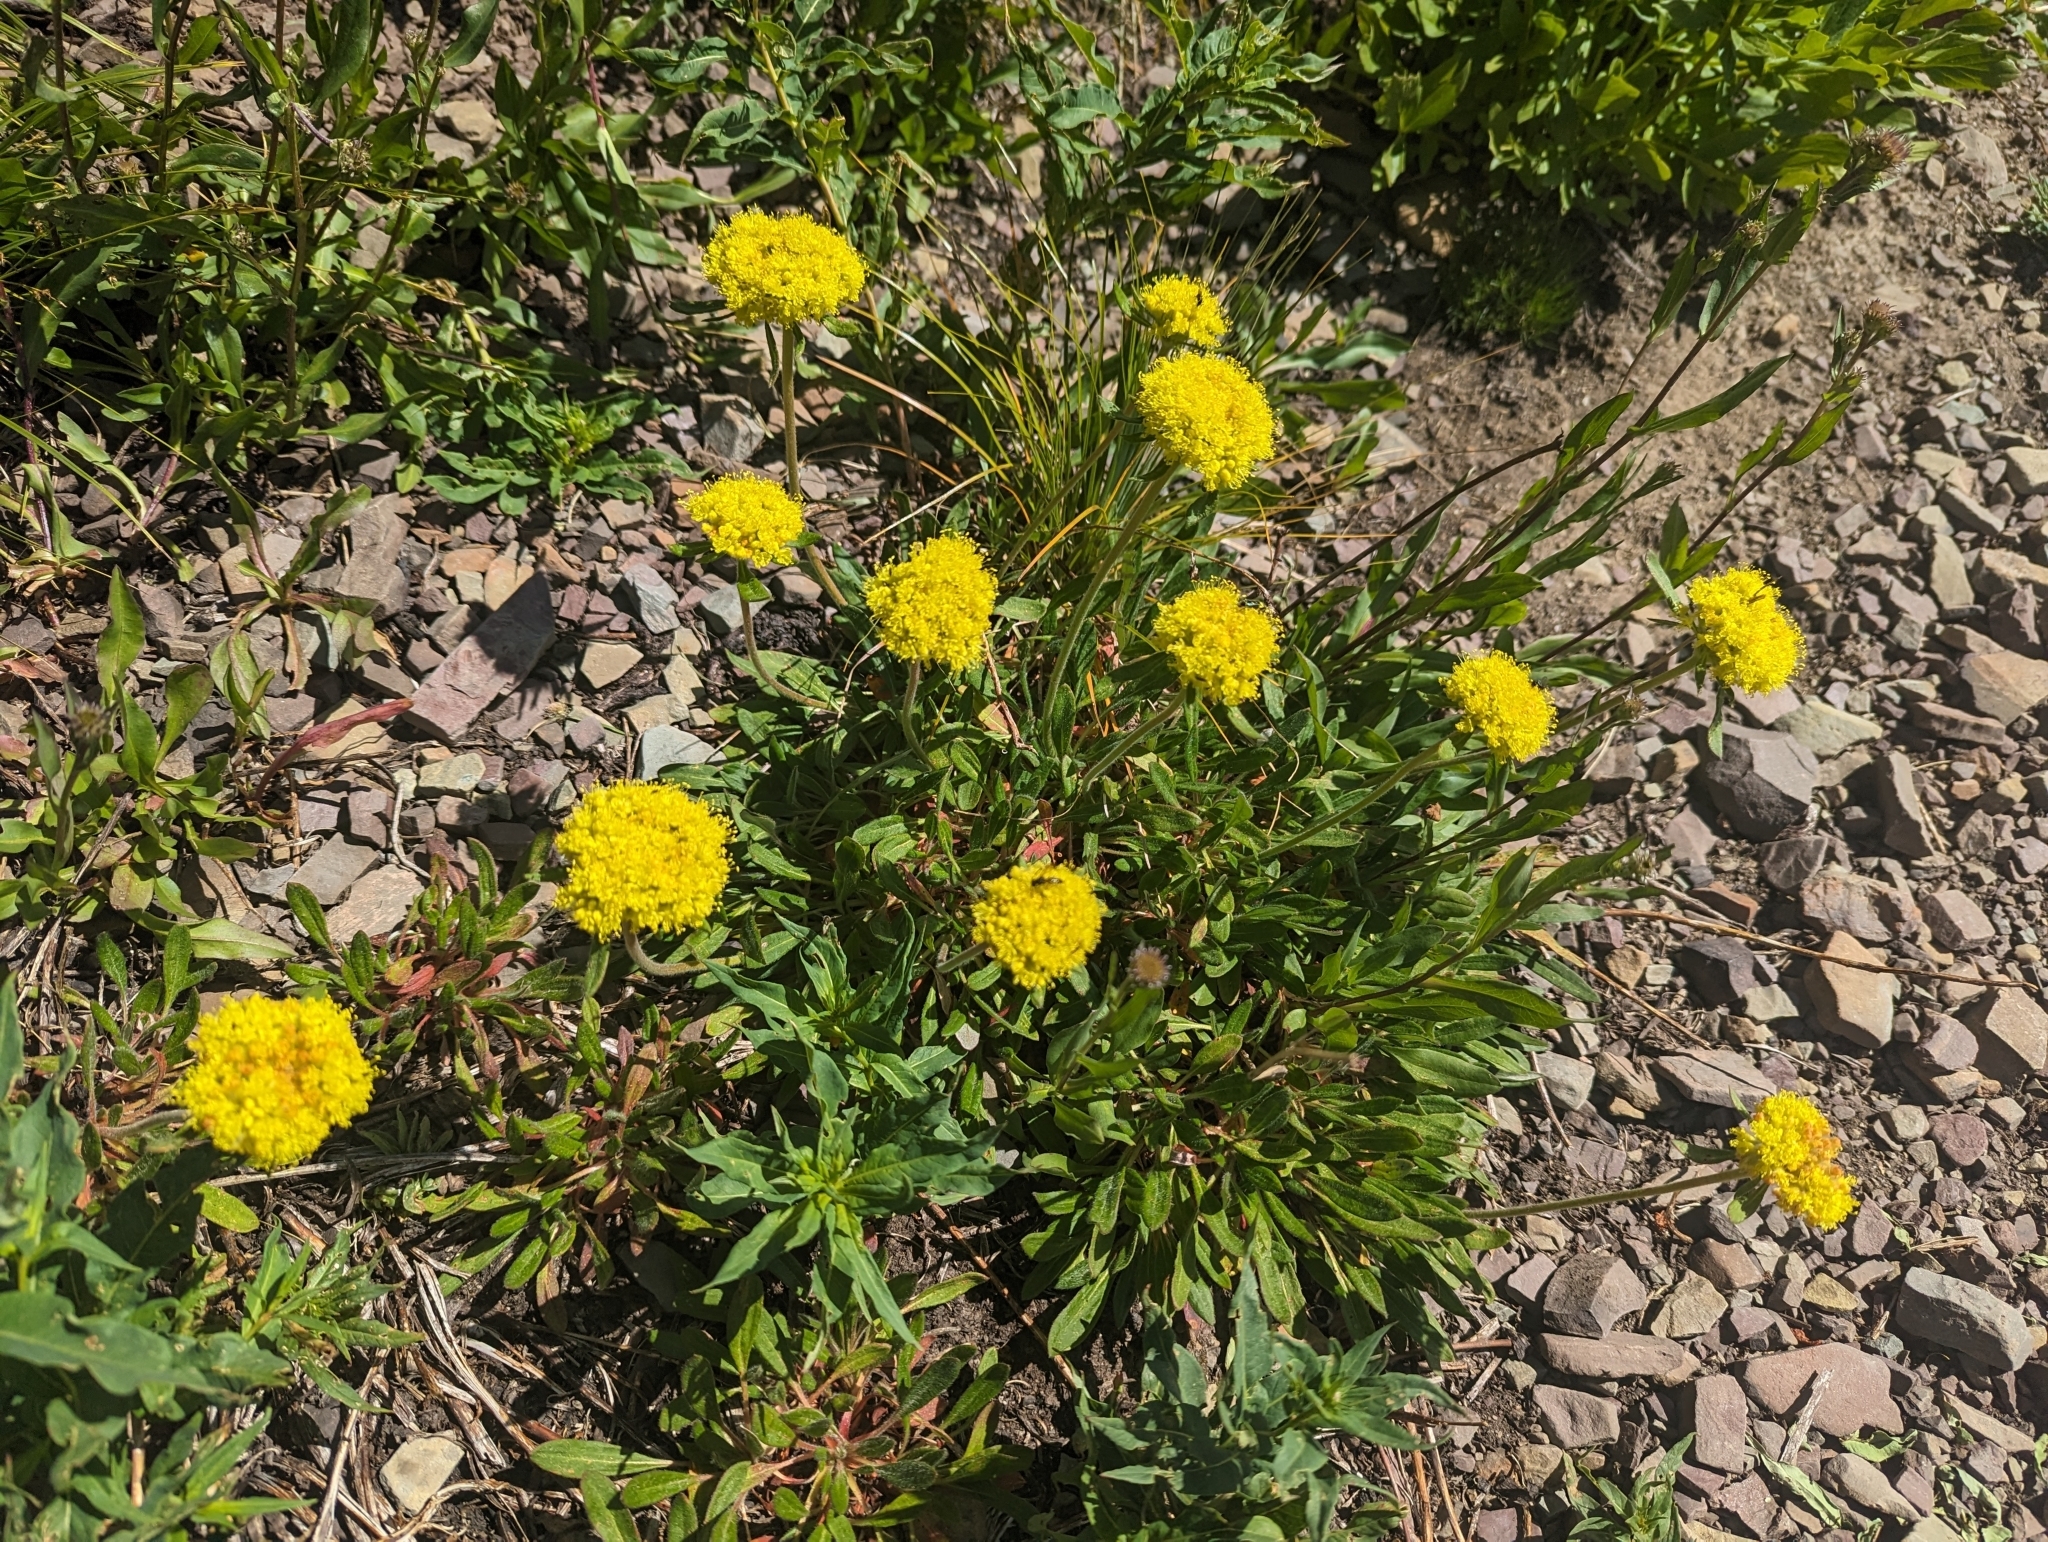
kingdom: Plantae
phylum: Tracheophyta
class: Magnoliopsida
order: Caryophyllales
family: Polygonaceae
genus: Eriogonum
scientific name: Eriogonum flavum
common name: Alpine golden wild buckwheat
